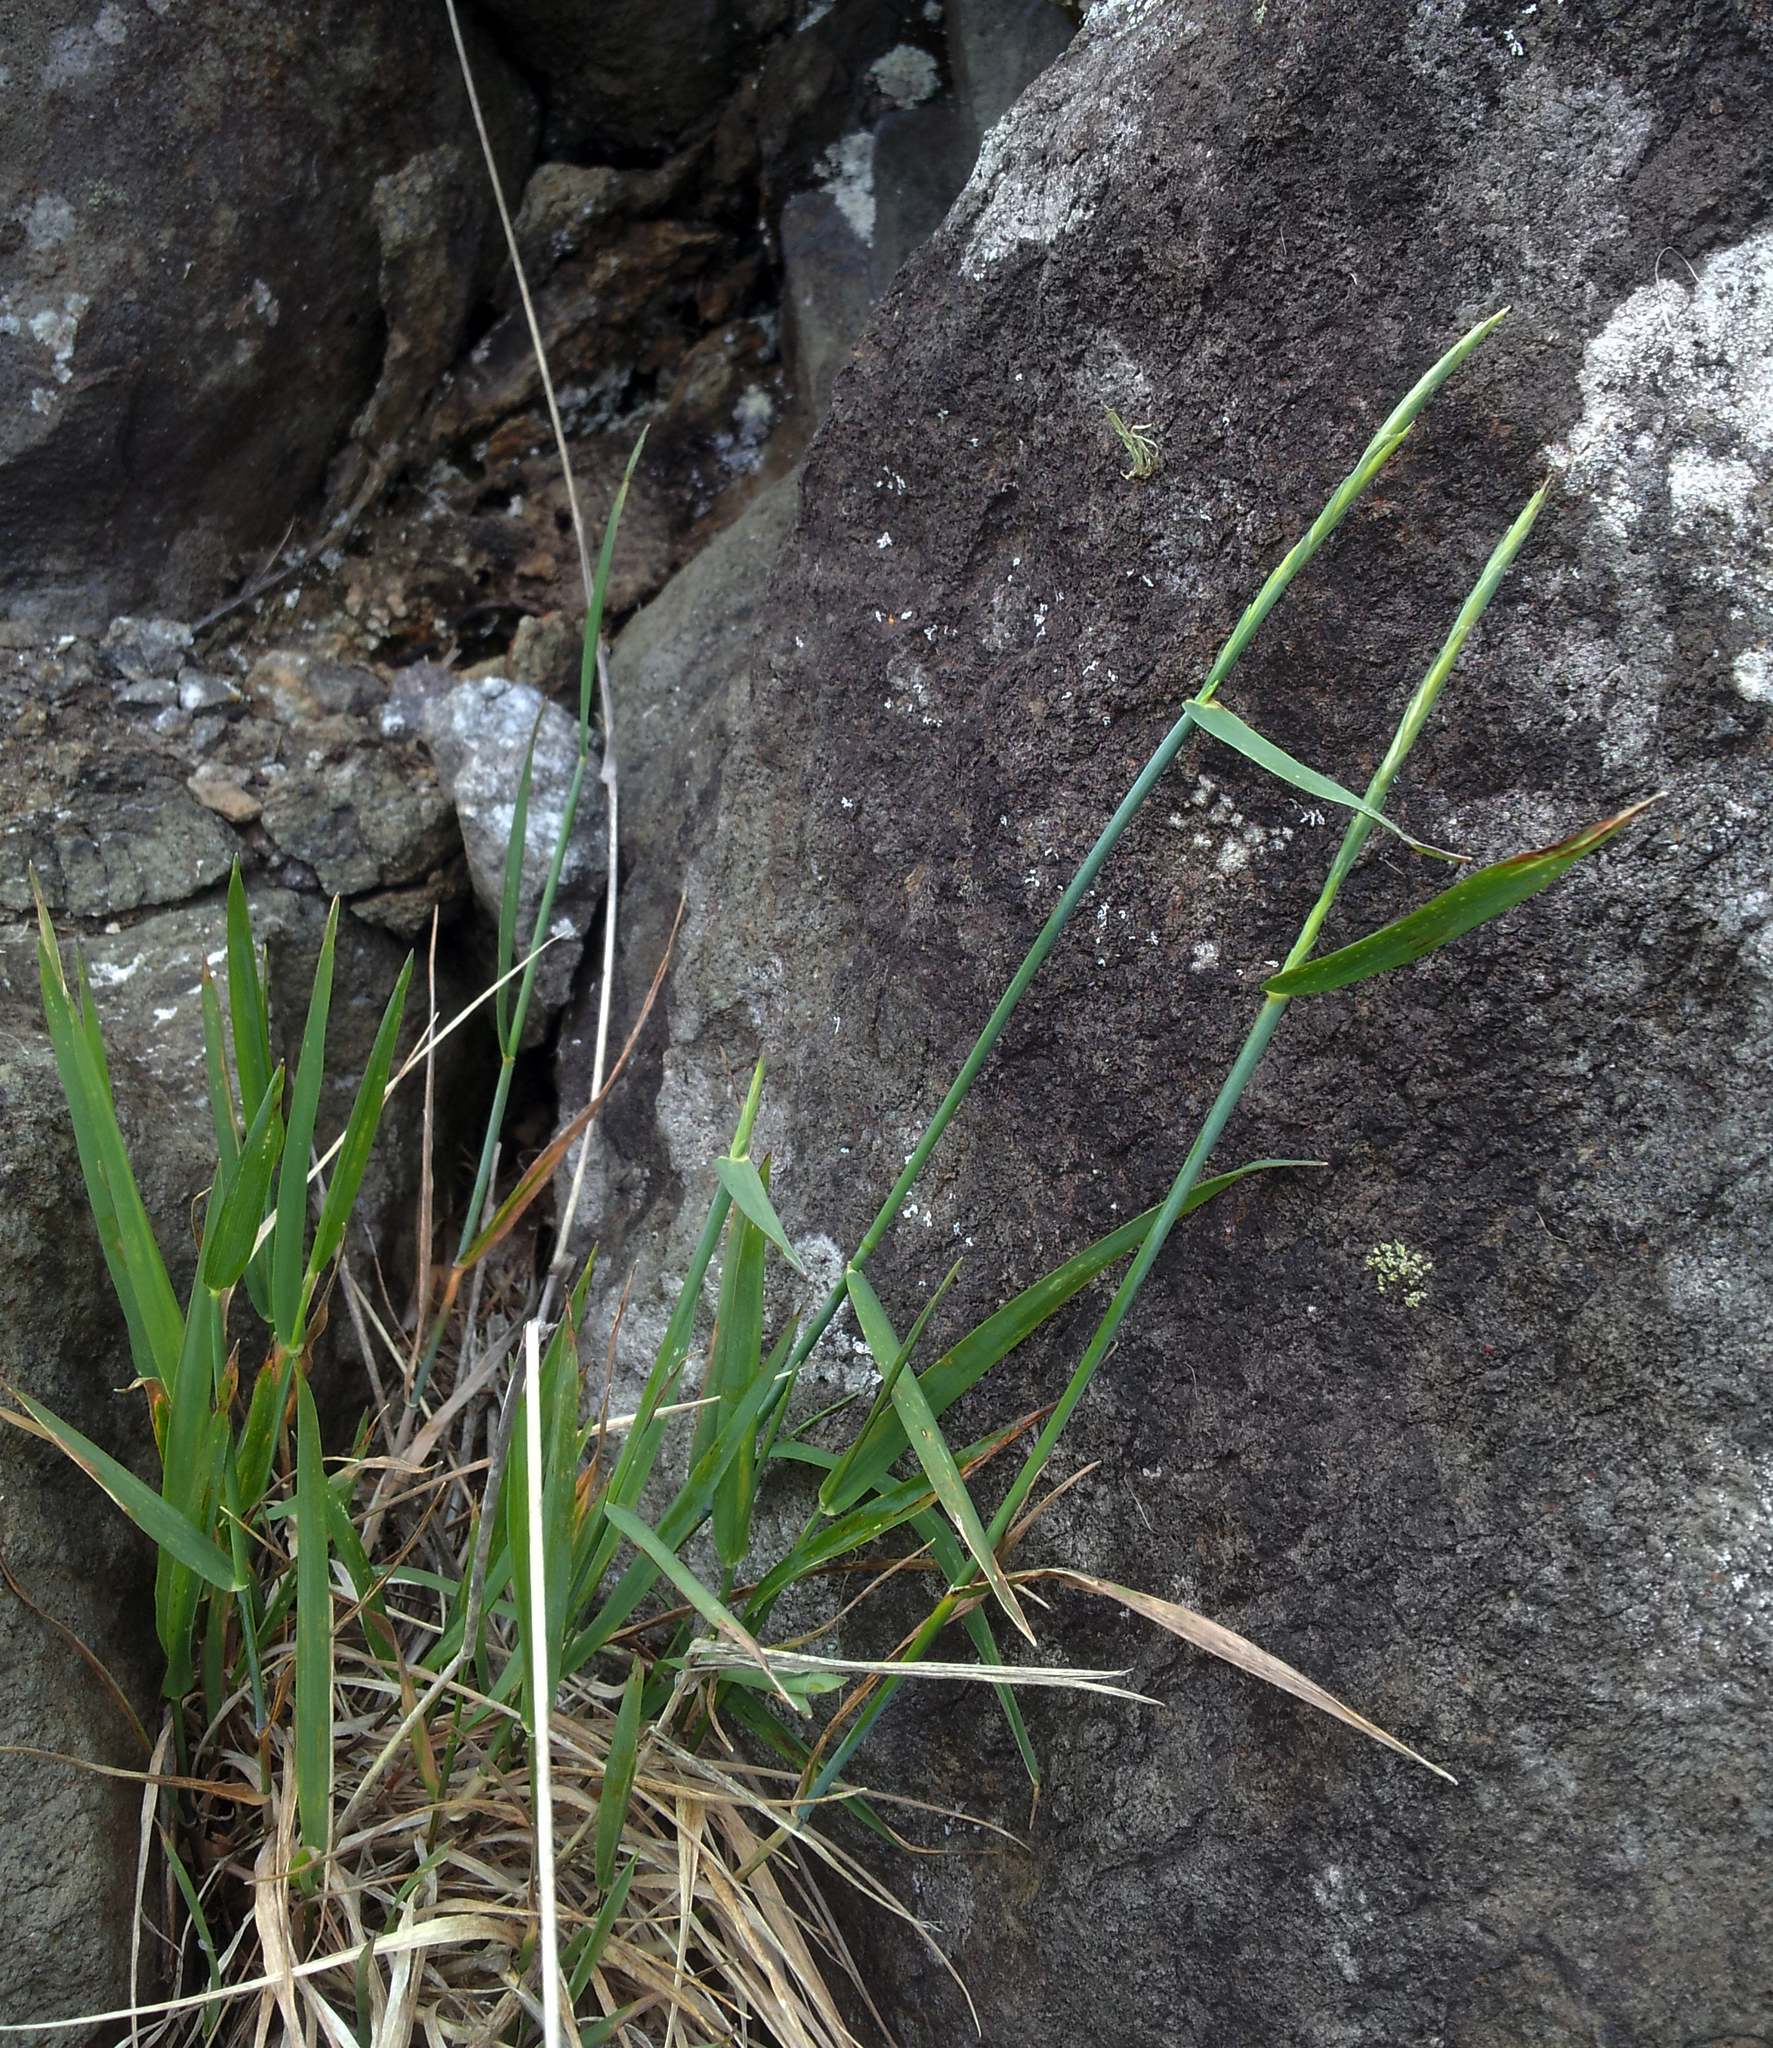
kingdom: Plantae
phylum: Tracheophyta
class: Liliopsida
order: Poales
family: Poaceae
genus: Anthosachne
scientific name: Anthosachne kingiana
